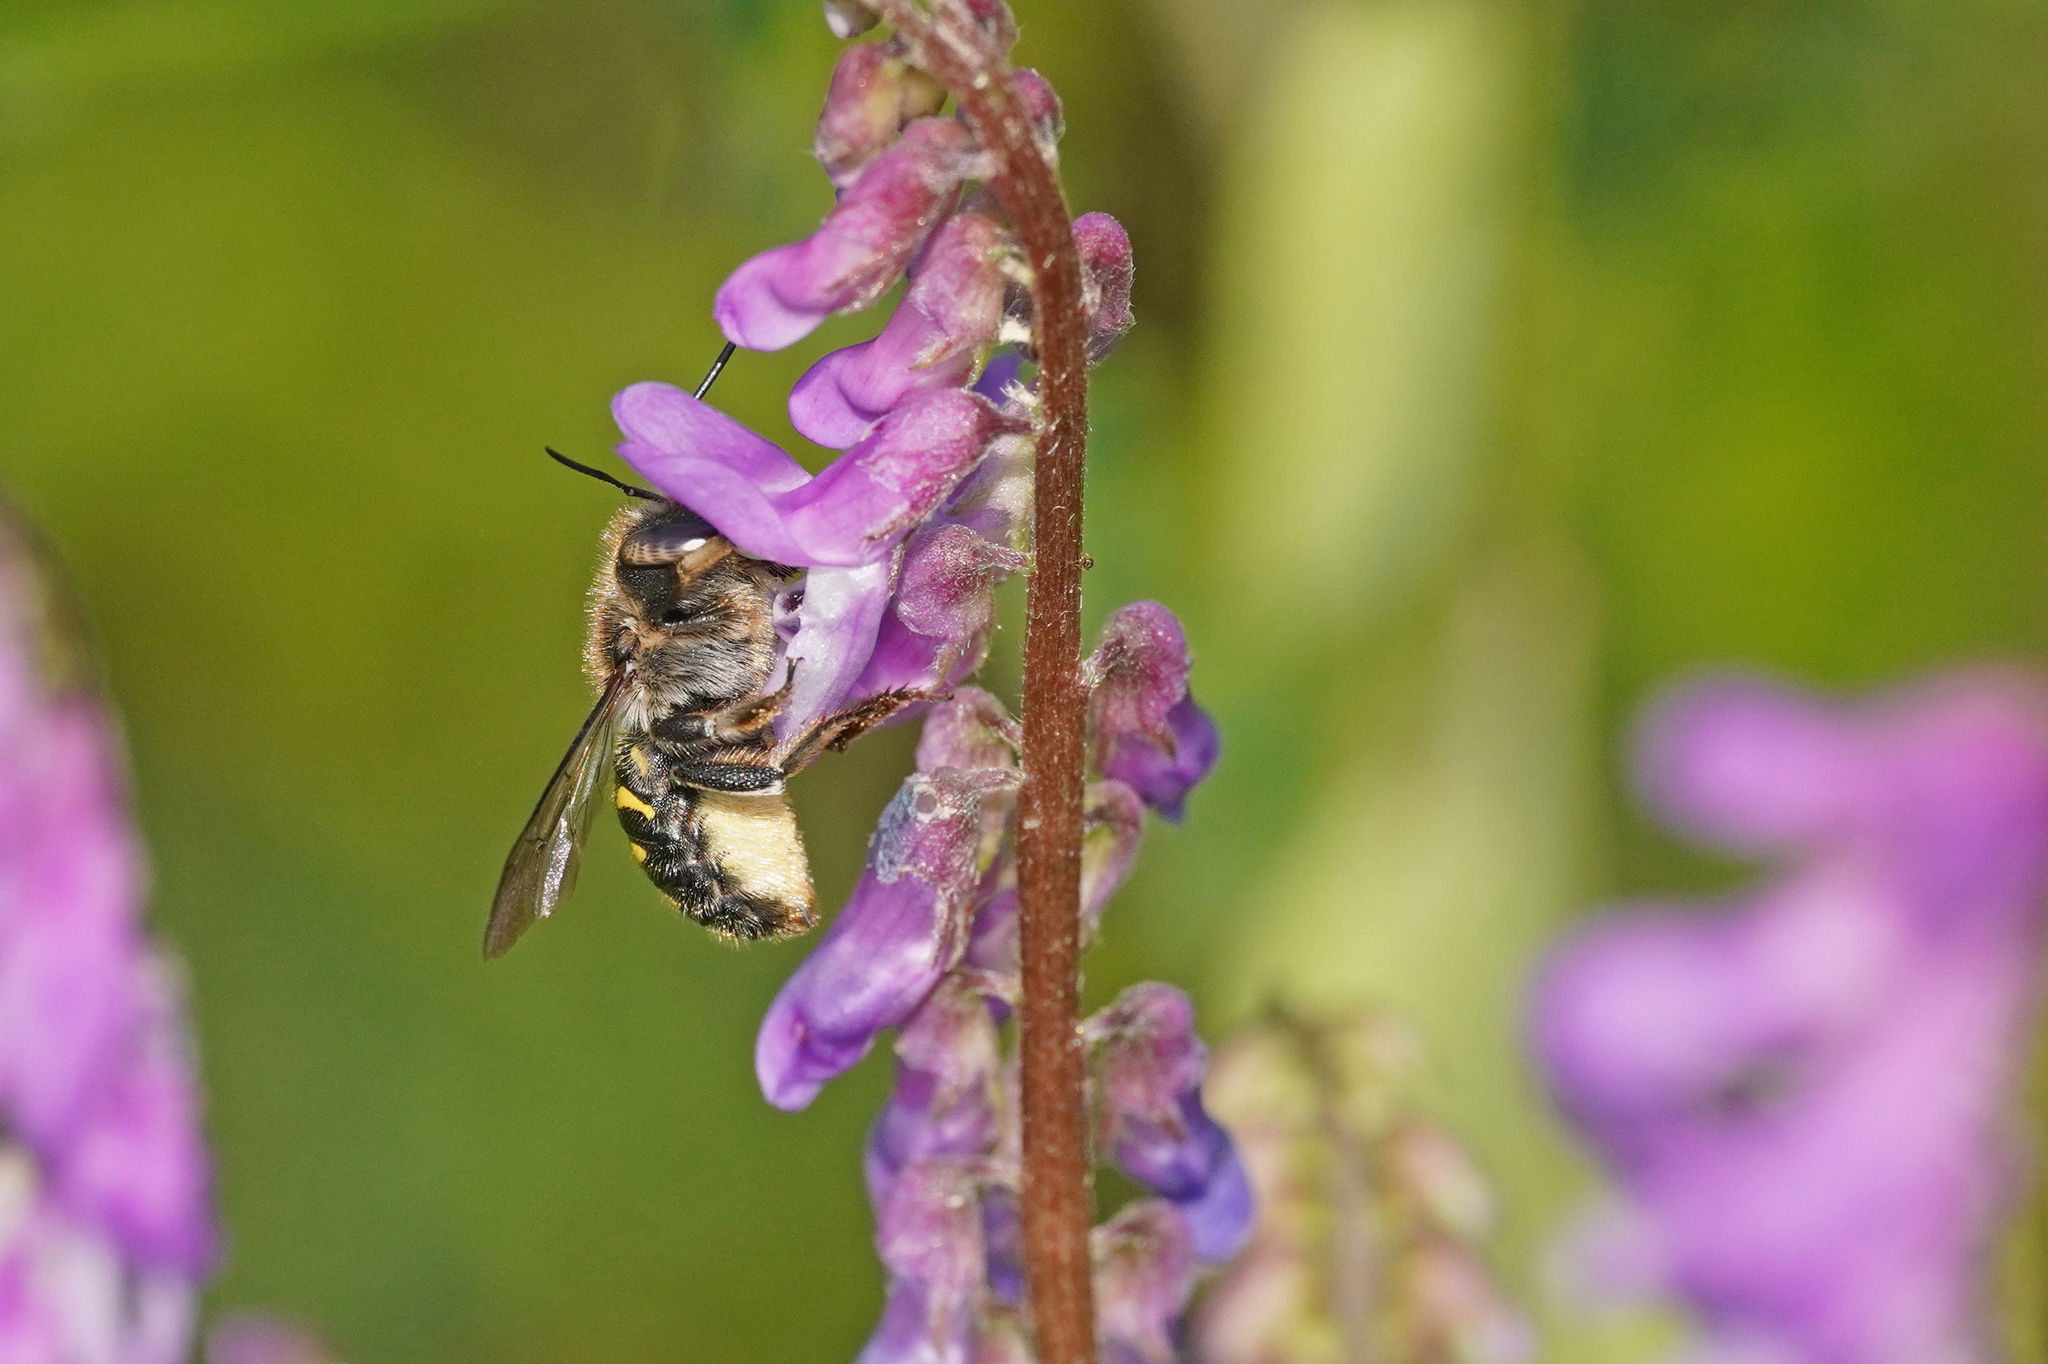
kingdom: Animalia
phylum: Arthropoda
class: Insecta
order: Hymenoptera
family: Megachilidae
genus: Anthidium
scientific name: Anthidium septemspinosum
